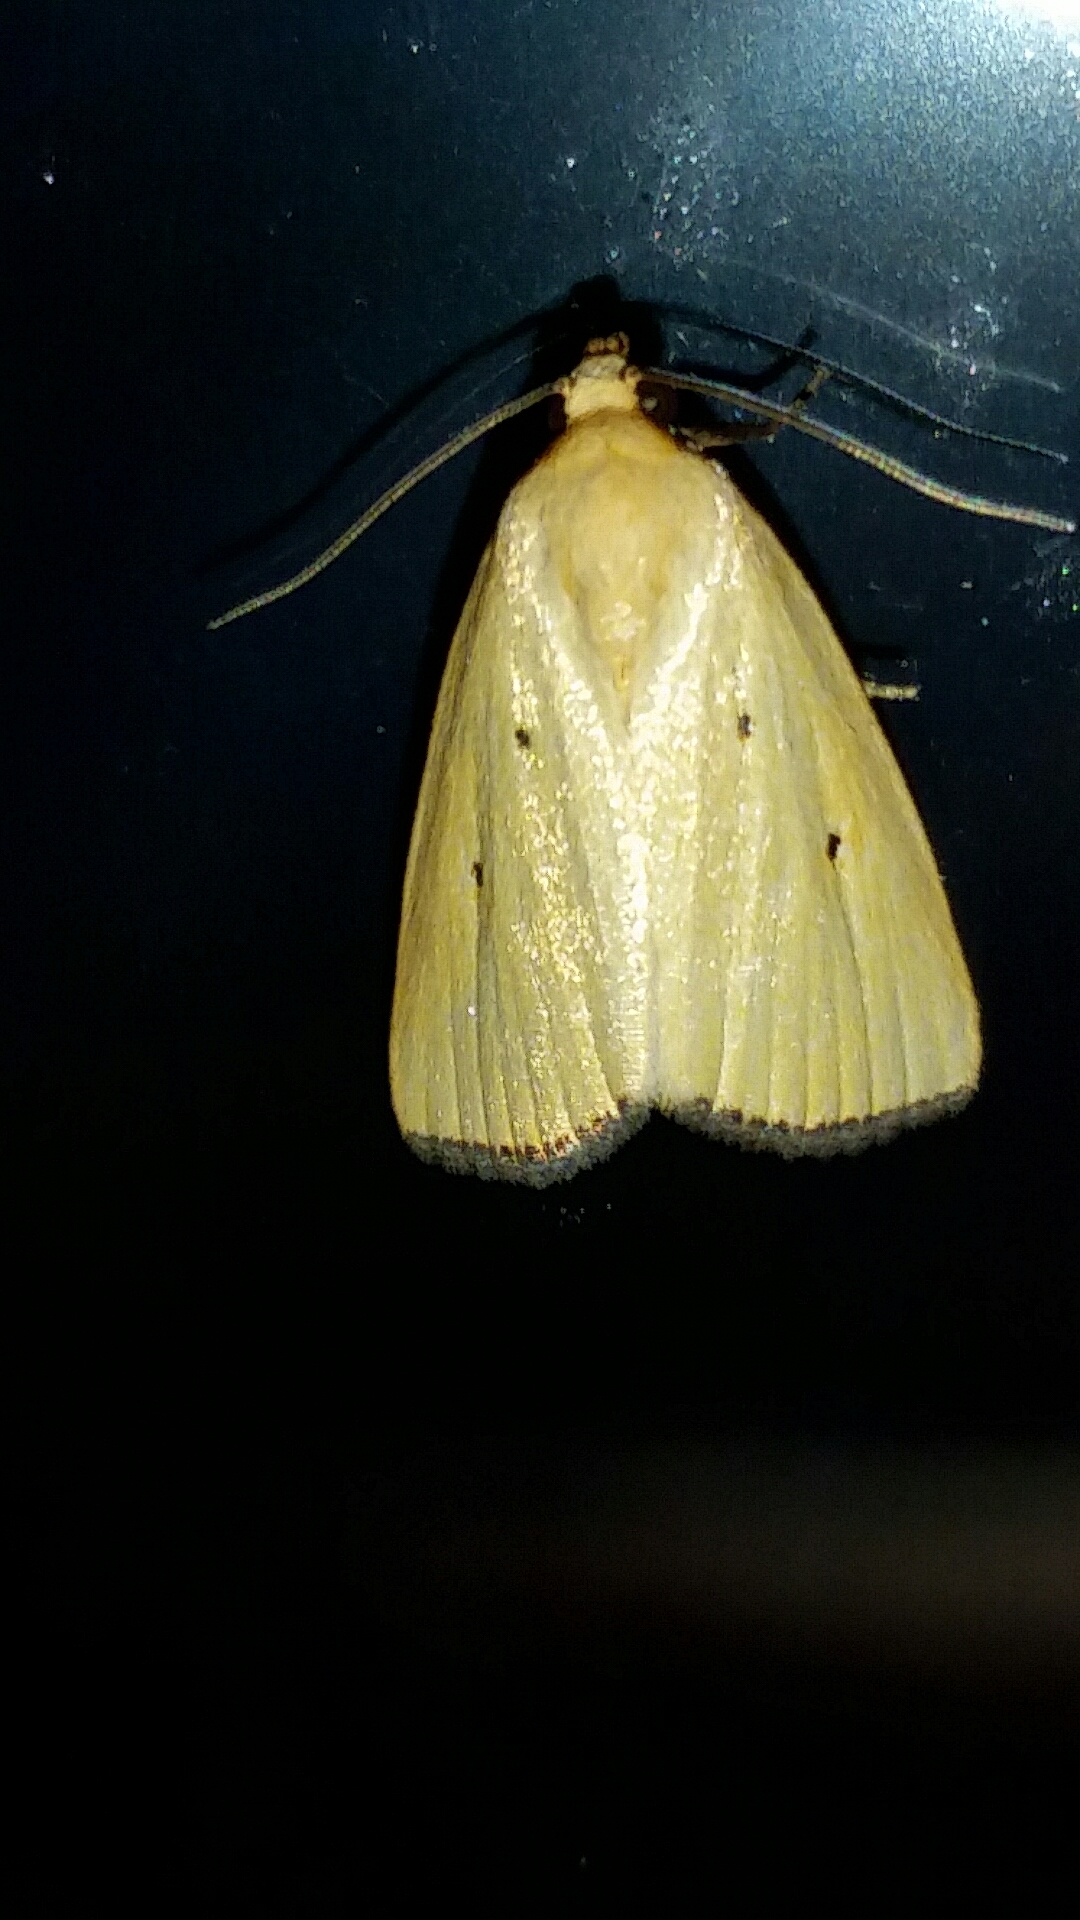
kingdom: Animalia
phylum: Arthropoda
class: Insecta
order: Lepidoptera
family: Noctuidae
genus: Marimatha
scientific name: Marimatha nigrofimbria
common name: Black-bordered lemon moth
